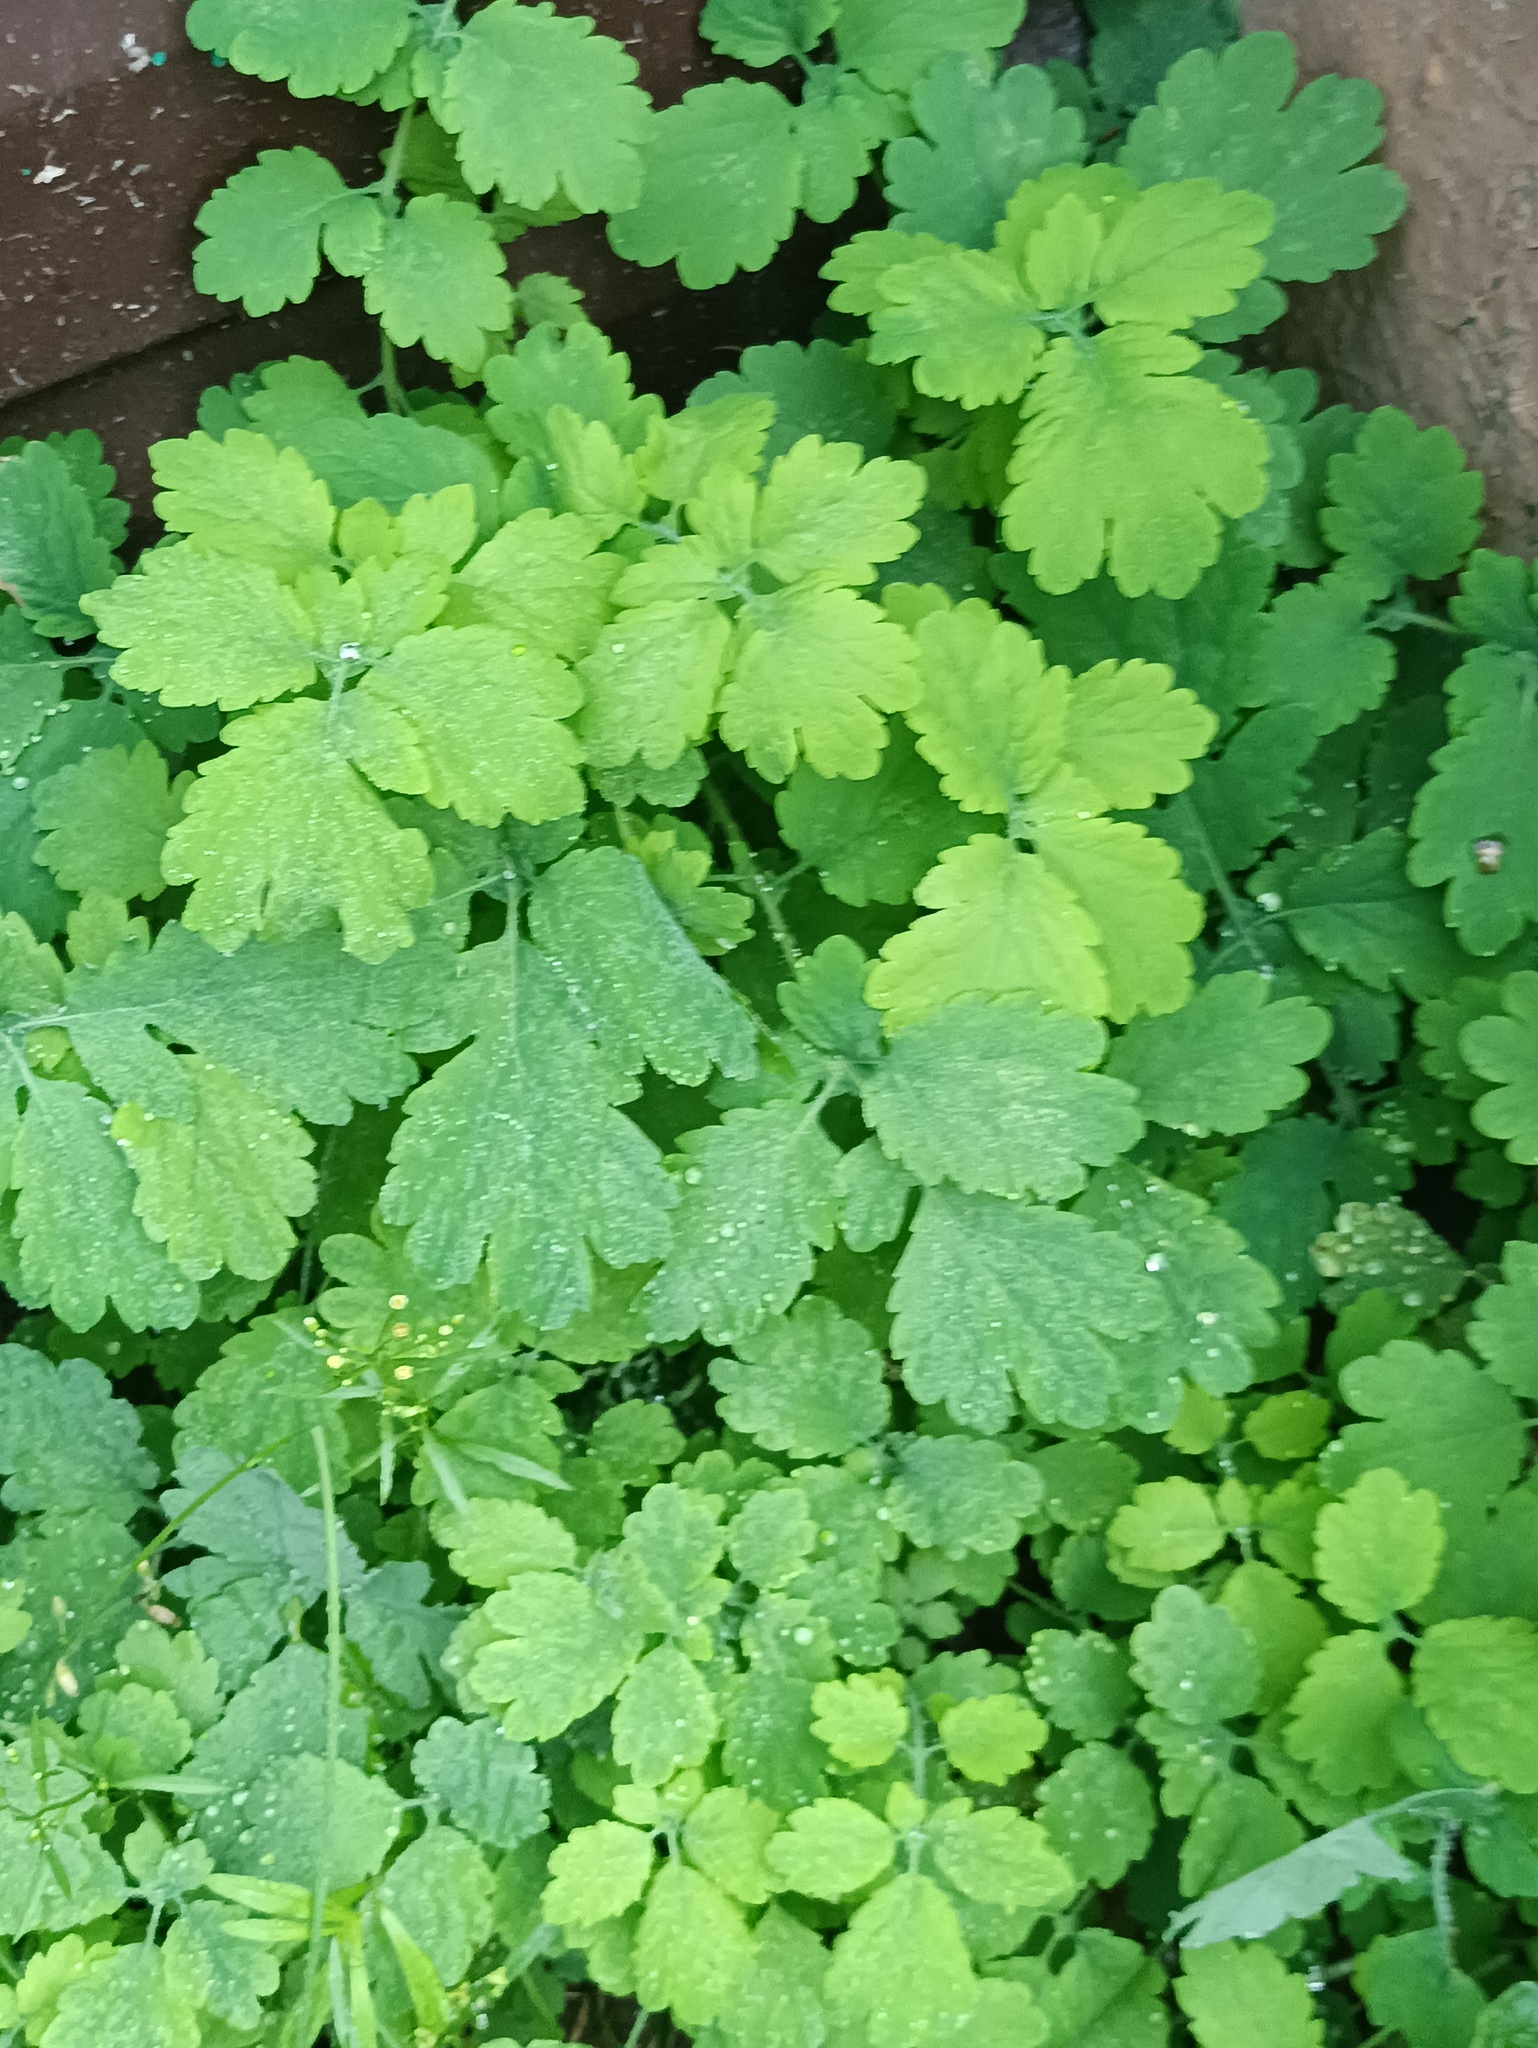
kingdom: Plantae
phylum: Tracheophyta
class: Magnoliopsida
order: Ranunculales
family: Papaveraceae
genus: Chelidonium
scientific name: Chelidonium majus
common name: Greater celandine
